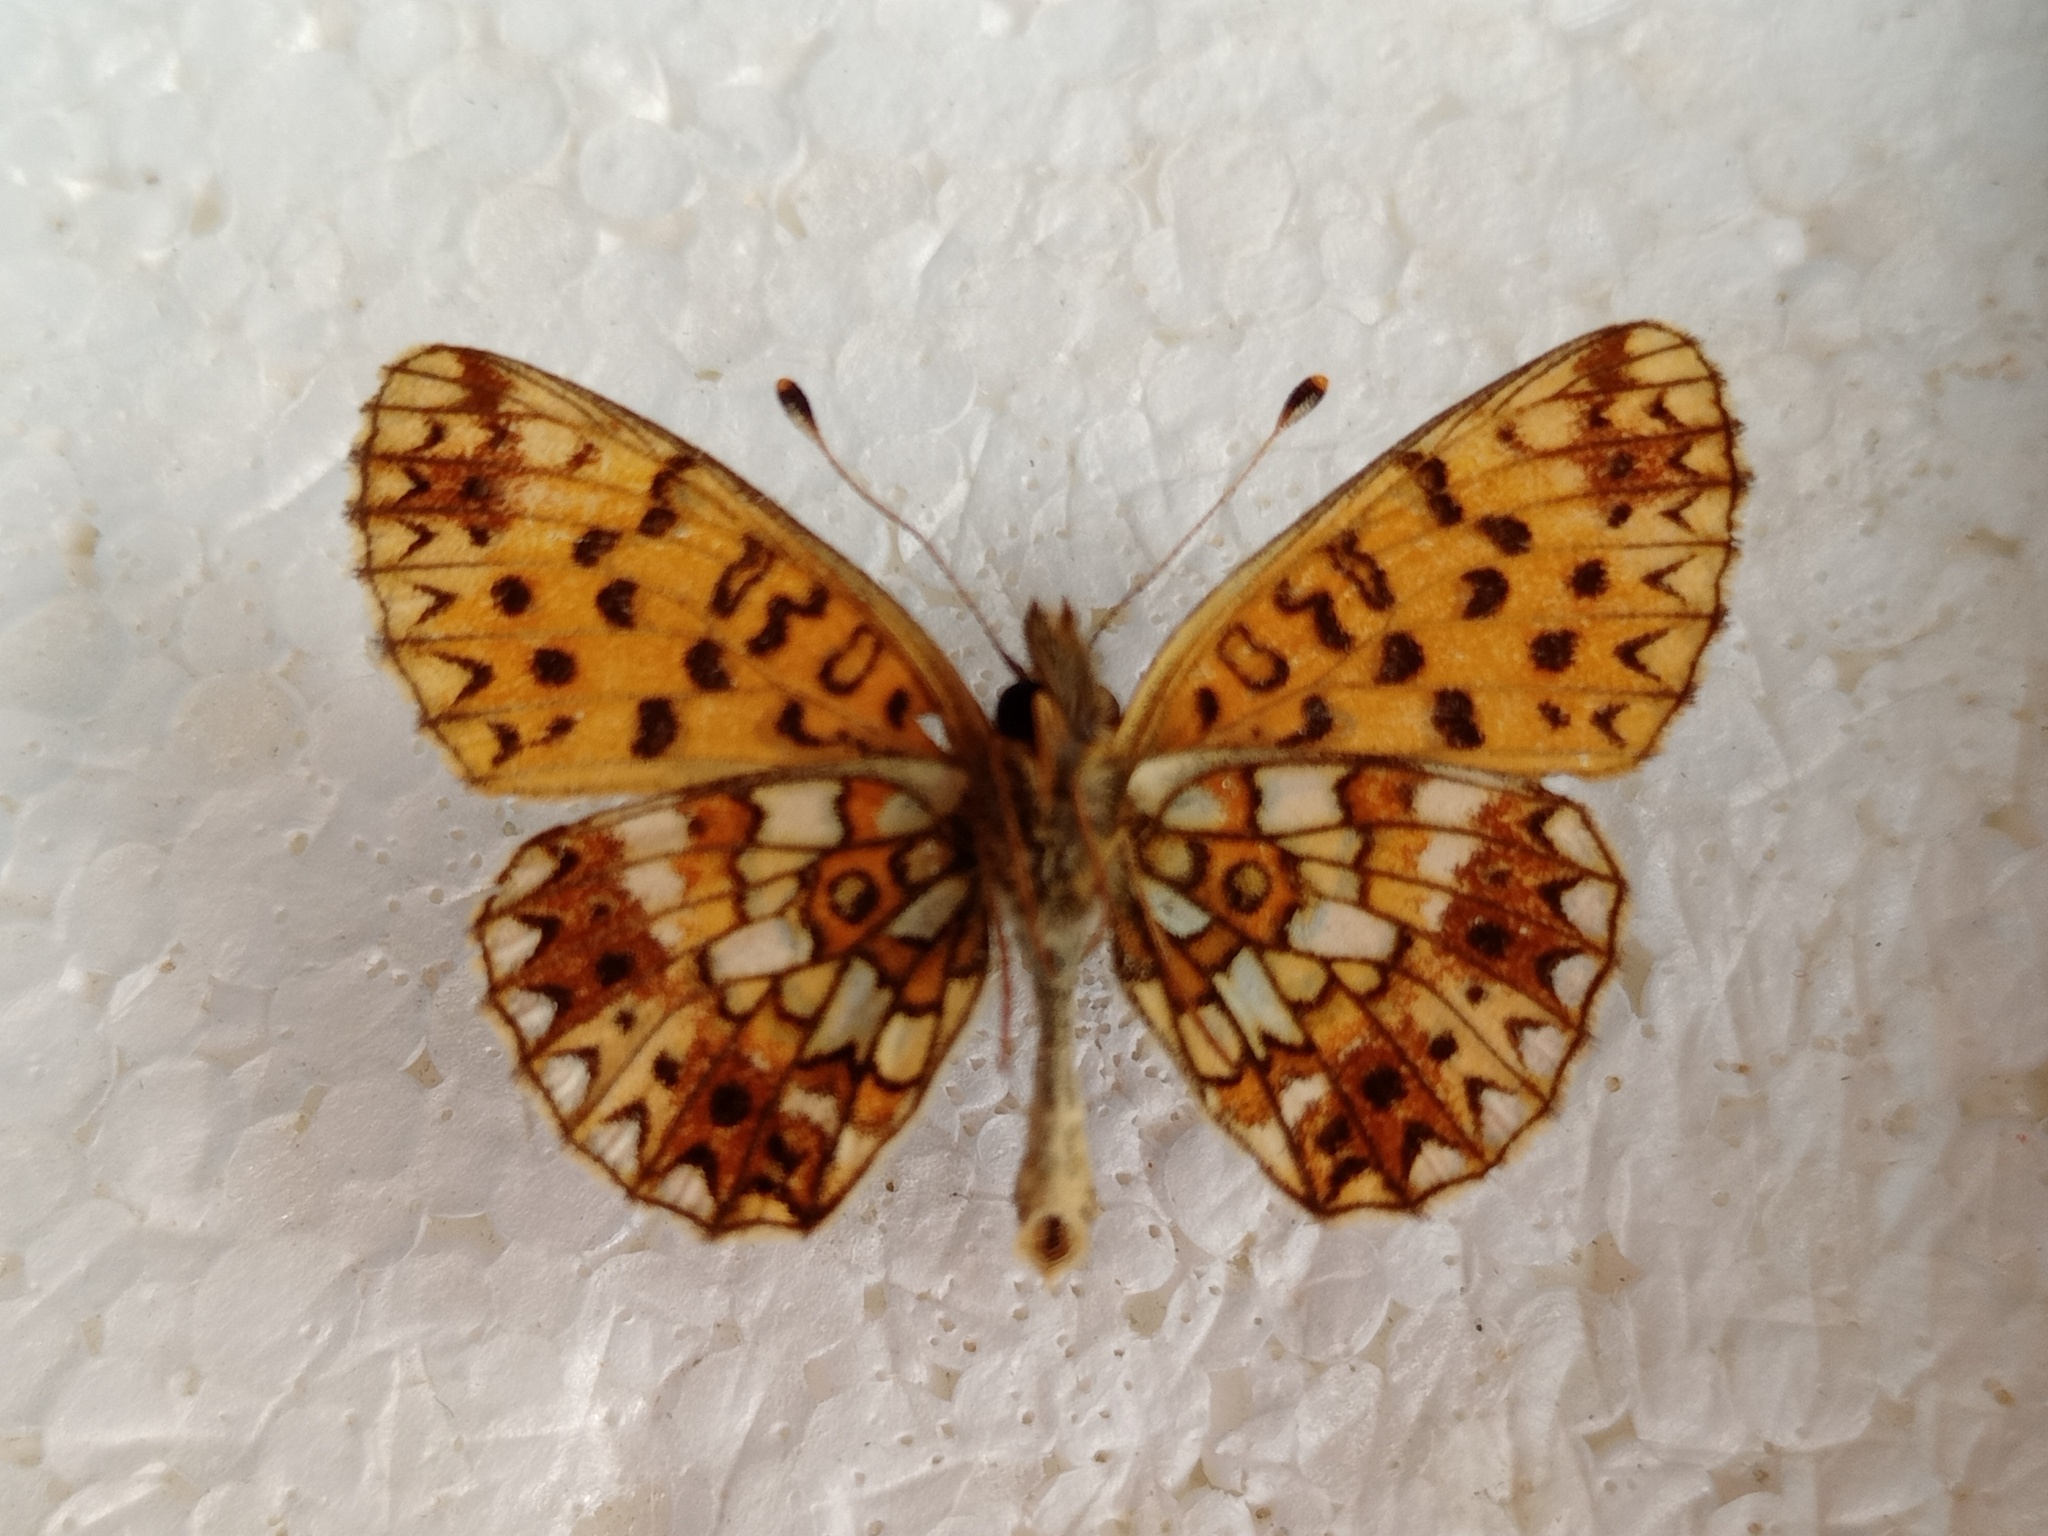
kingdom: Animalia
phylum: Arthropoda
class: Insecta
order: Lepidoptera
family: Nymphalidae
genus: Boloria
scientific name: Boloria selene
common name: Small pearl-bordered fritillary
